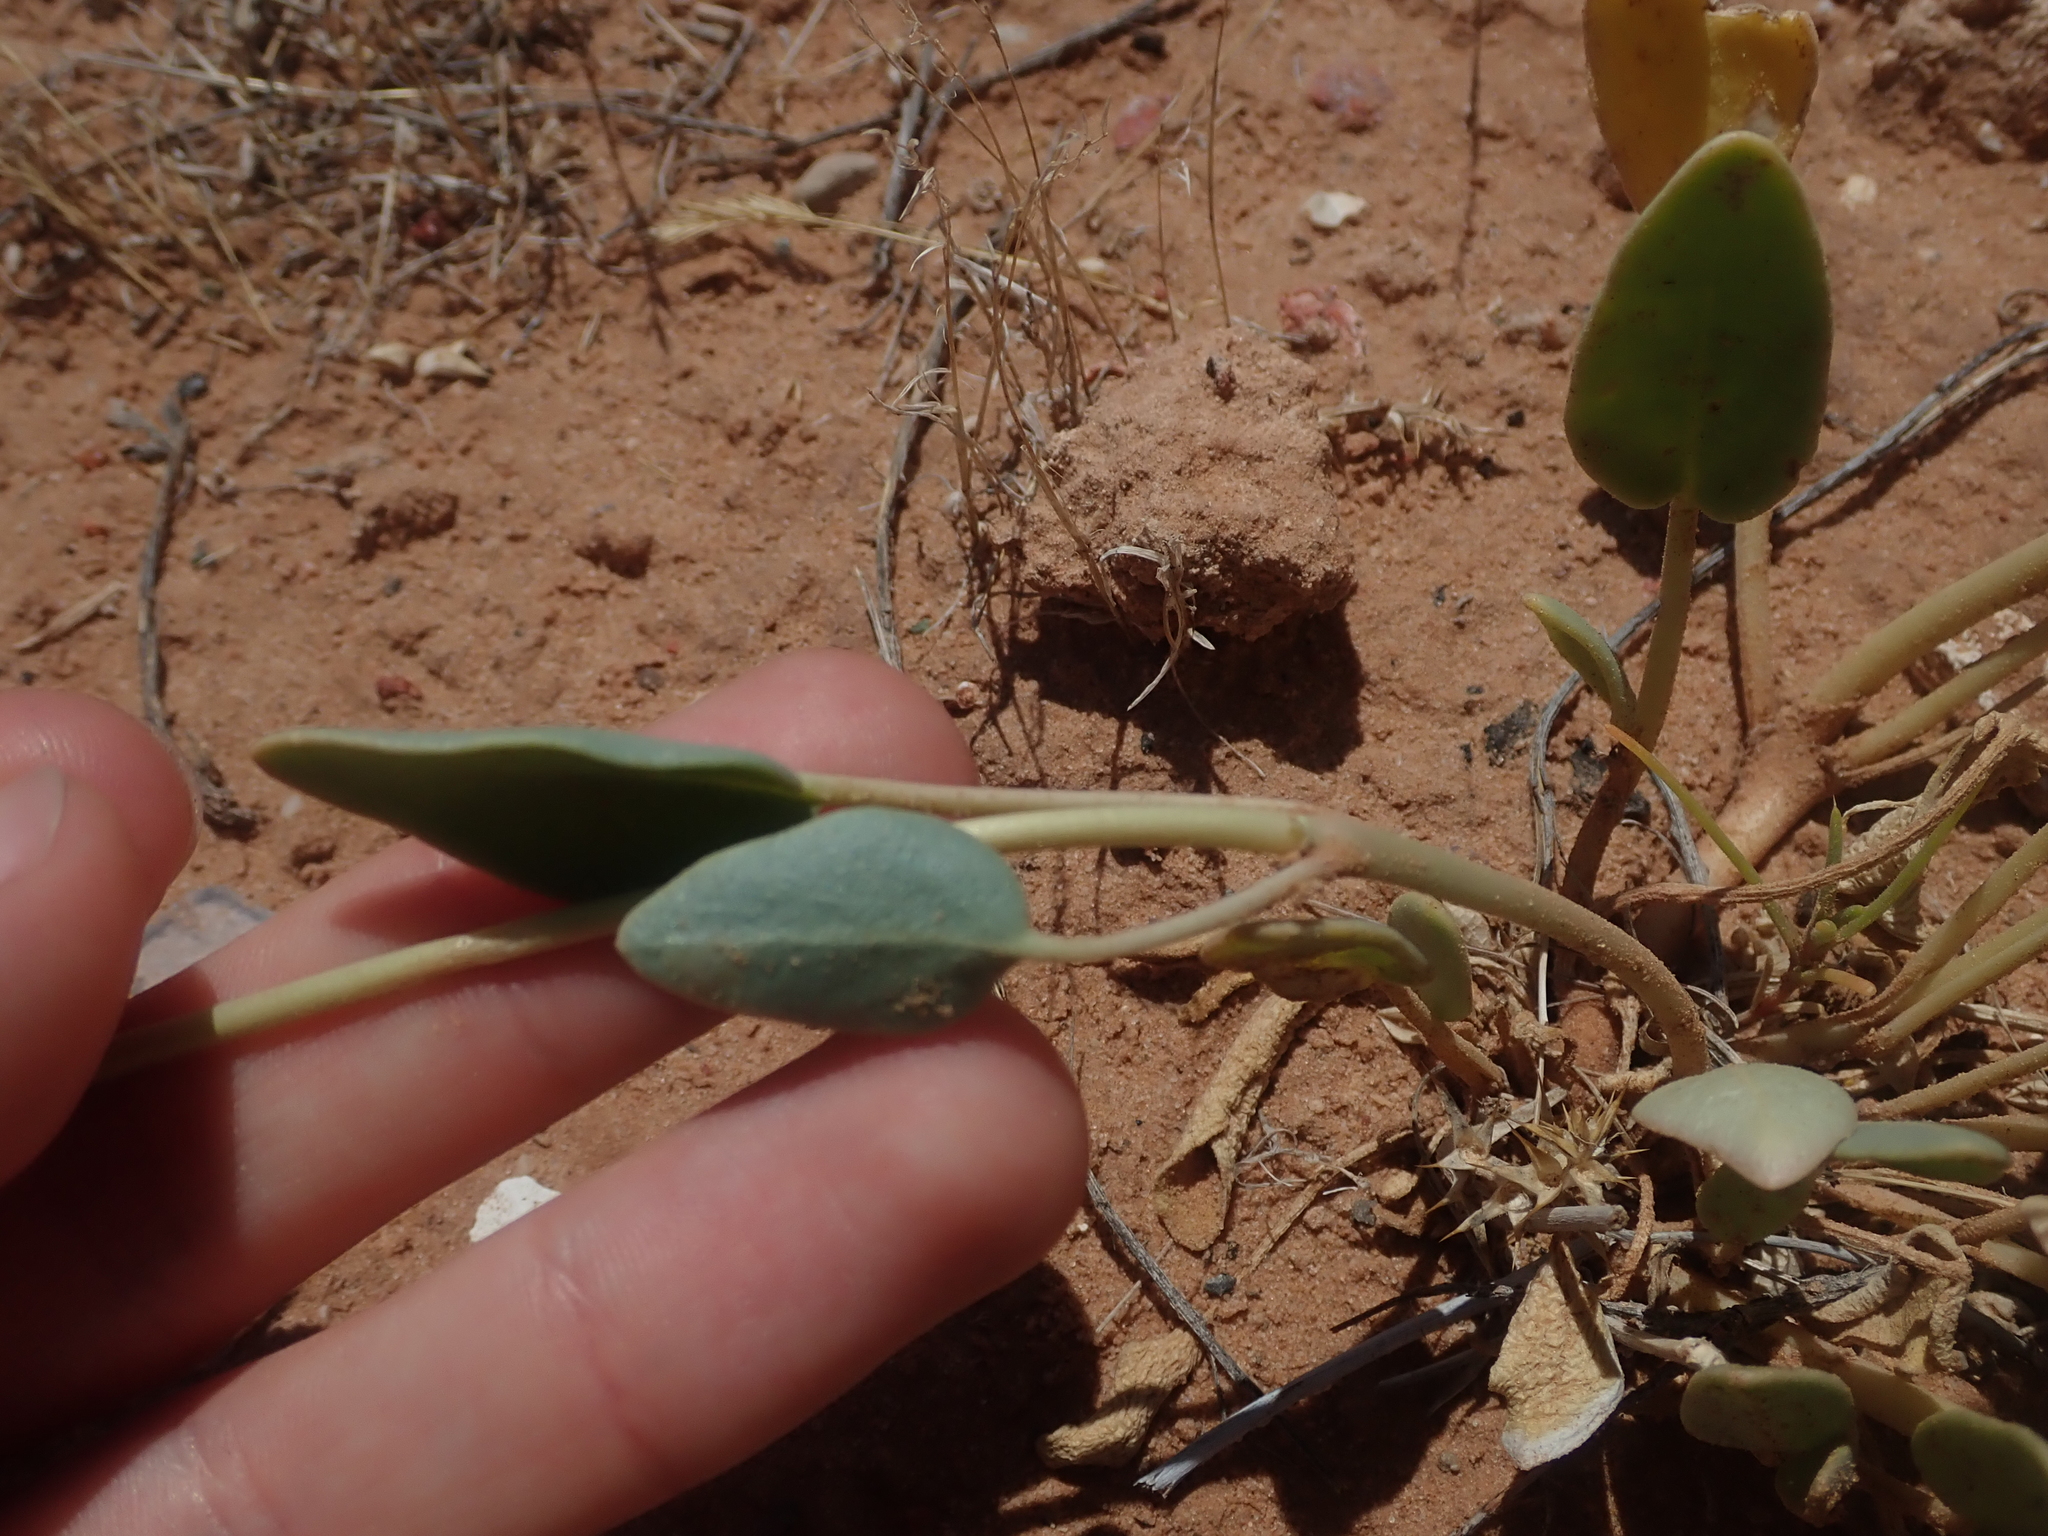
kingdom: Plantae
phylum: Tracheophyta
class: Magnoliopsida
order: Caryophyllales
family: Nyctaginaceae
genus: Abronia
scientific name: Abronia elliptica
